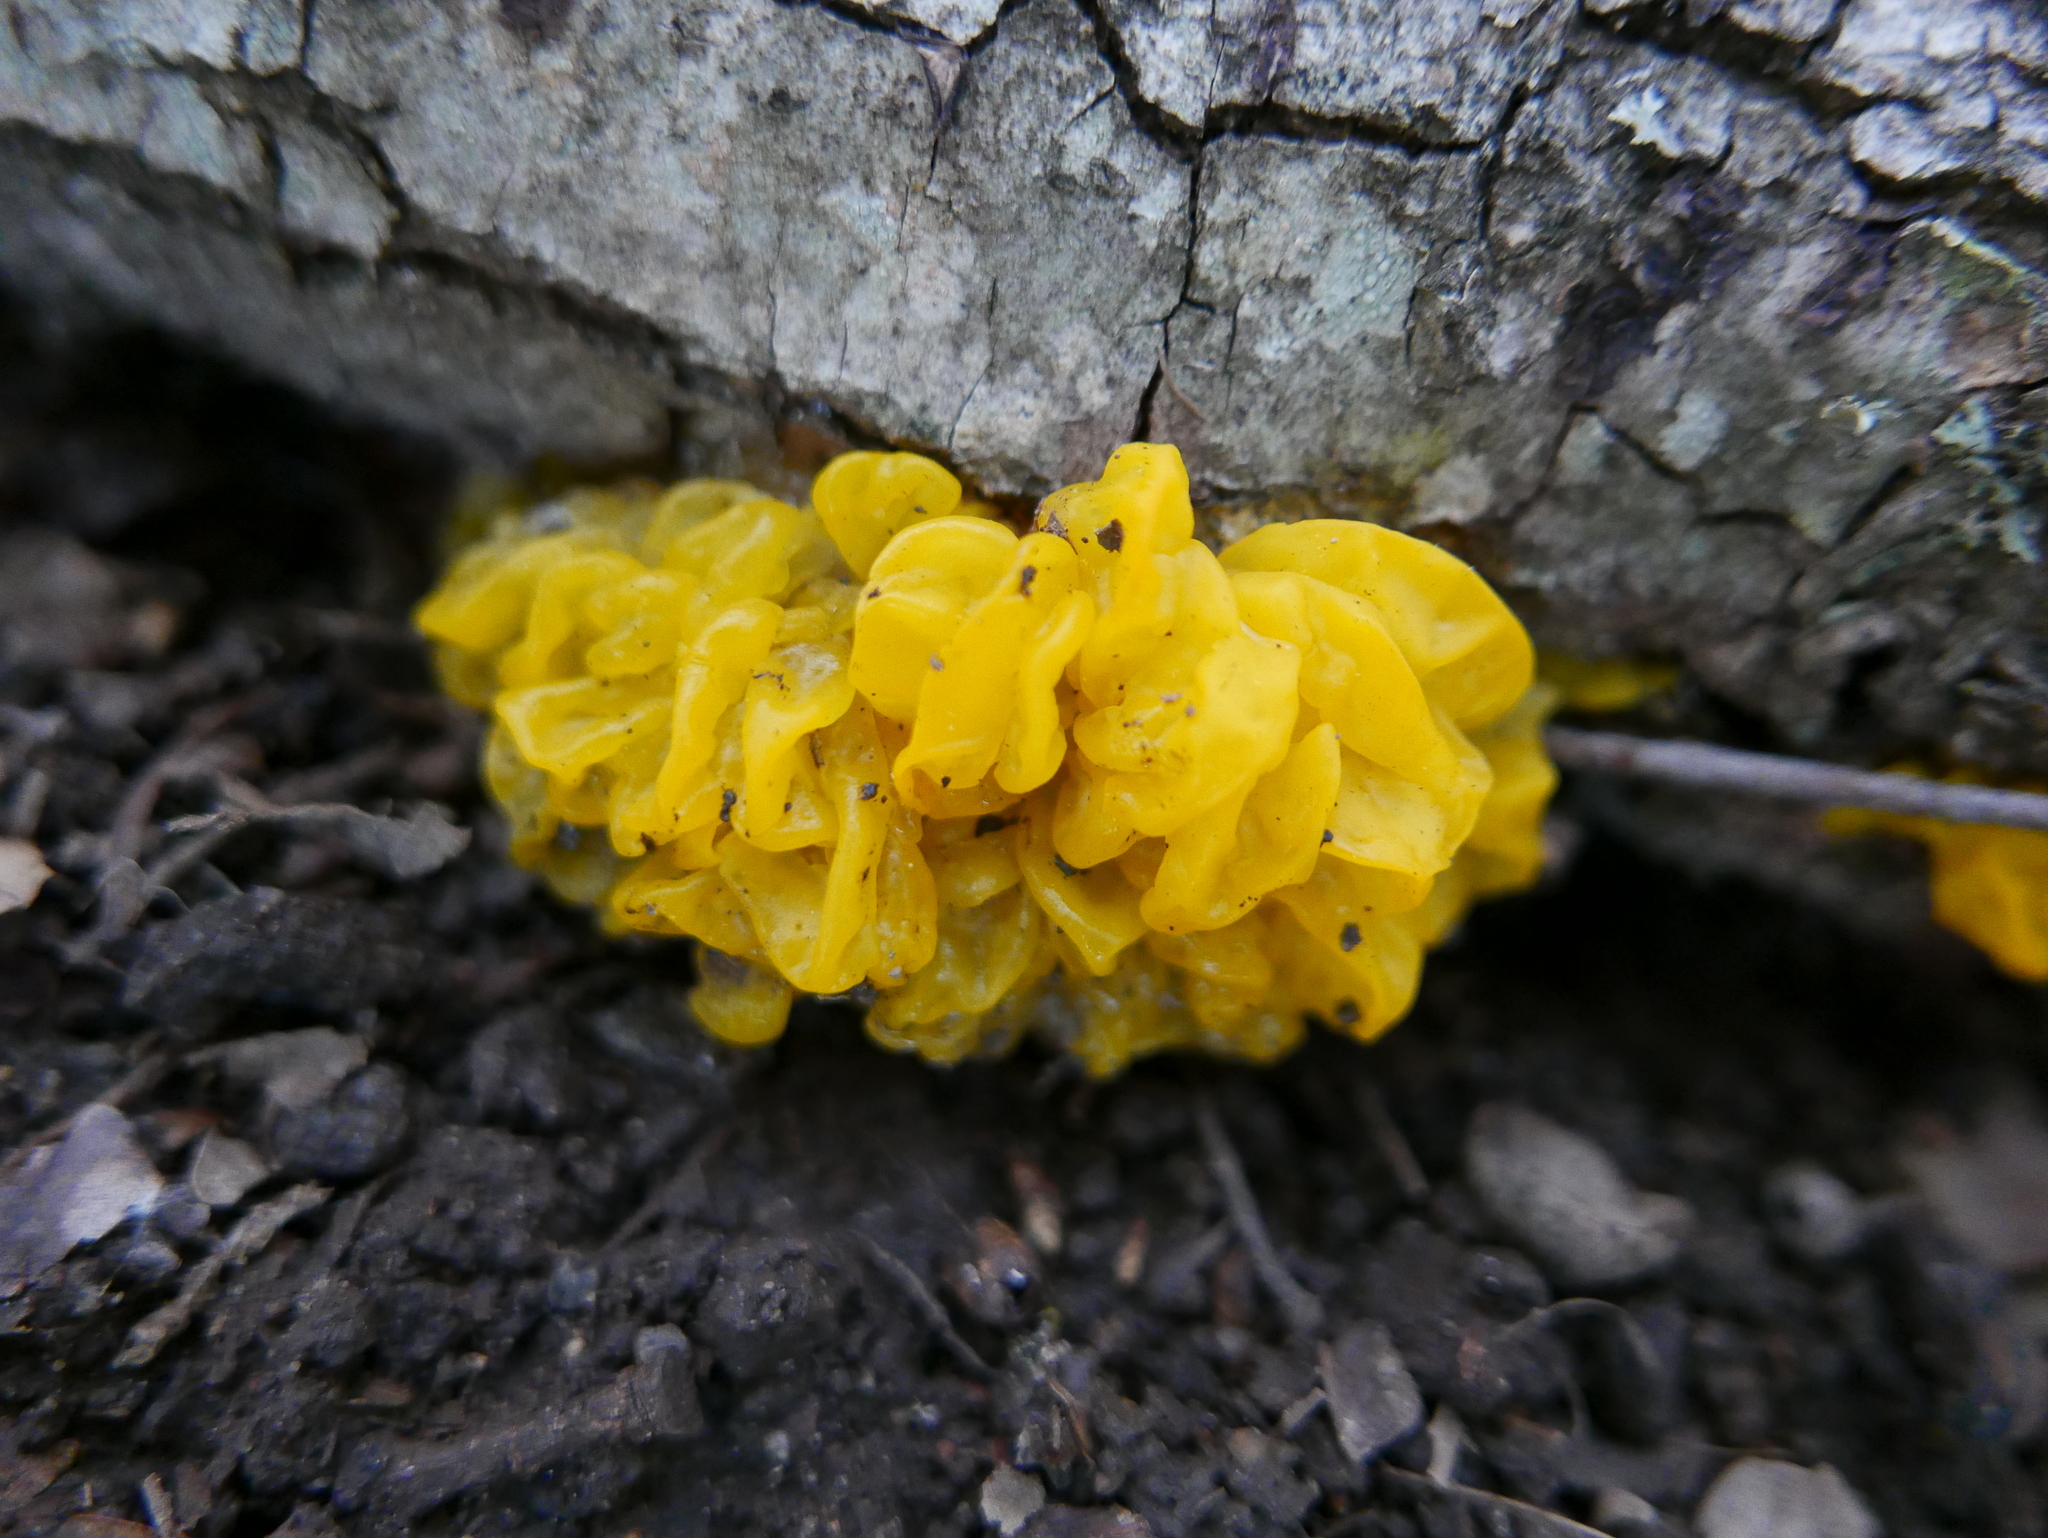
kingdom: Fungi
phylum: Basidiomycota
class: Tremellomycetes
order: Tremellales
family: Tremellaceae
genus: Tremella
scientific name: Tremella mesenterica
